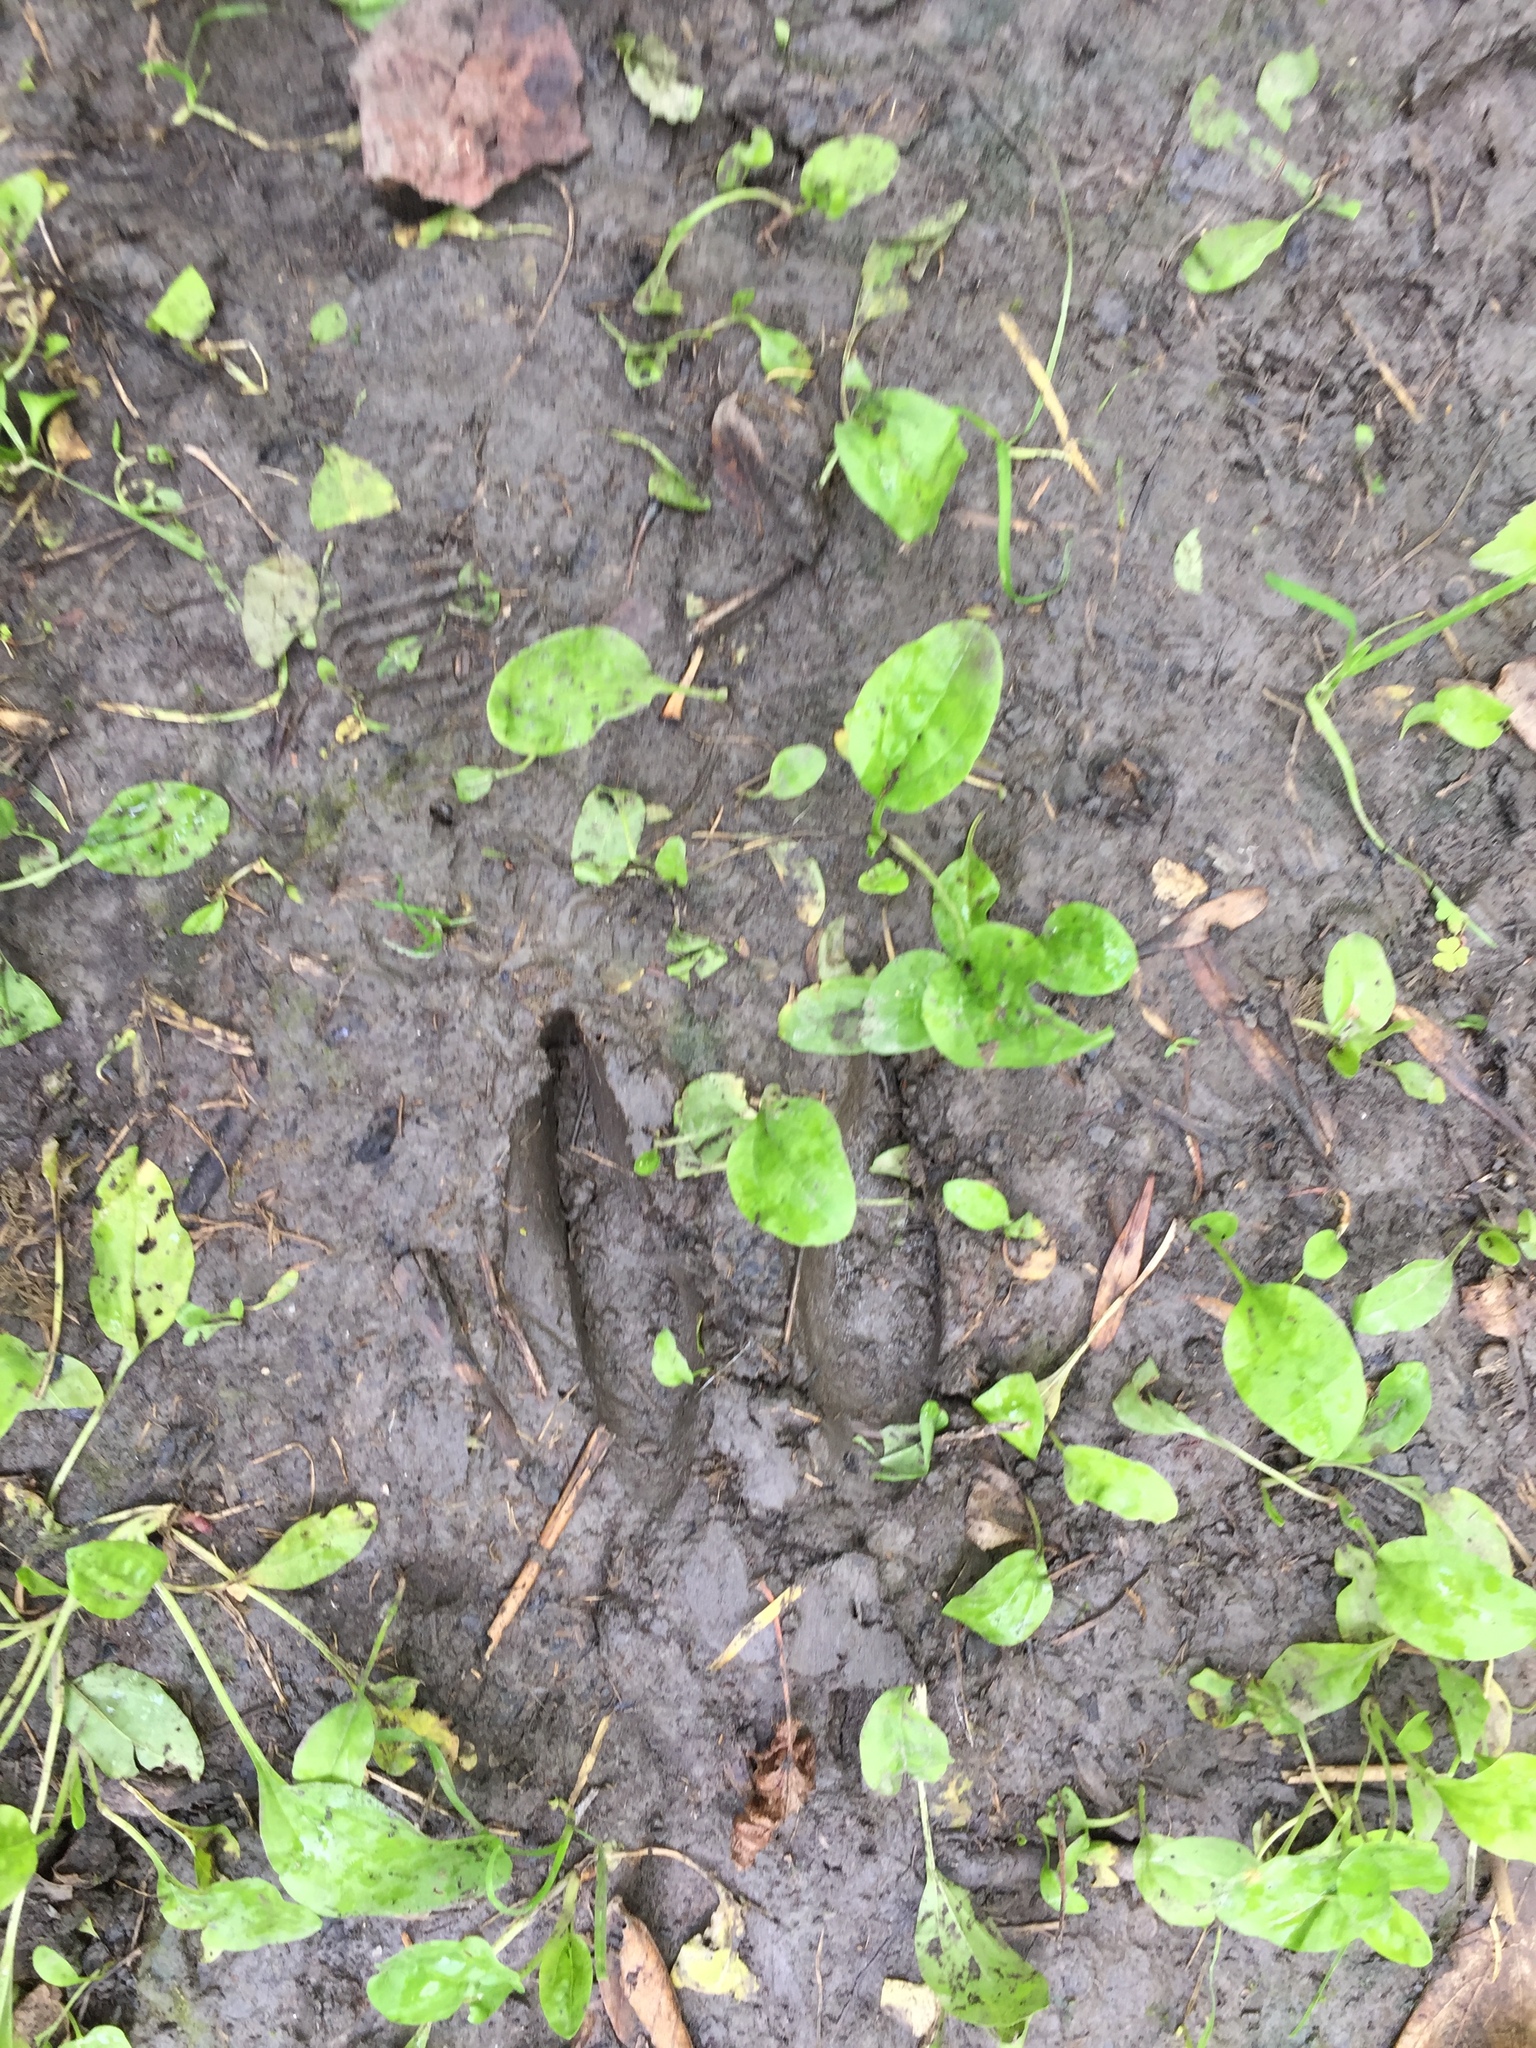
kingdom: Animalia
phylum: Chordata
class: Mammalia
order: Artiodactyla
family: Cervidae
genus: Odocoileus
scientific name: Odocoileus virginianus
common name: White-tailed deer
